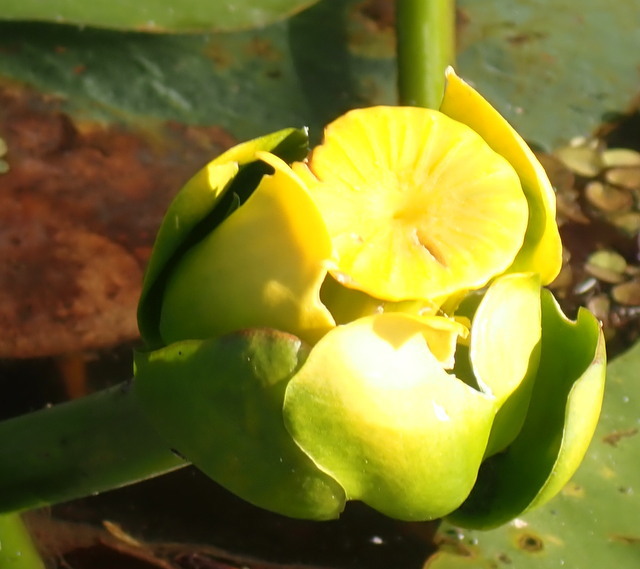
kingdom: Plantae
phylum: Tracheophyta
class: Magnoliopsida
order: Nymphaeales
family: Nymphaeaceae
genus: Nuphar
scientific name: Nuphar advena
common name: Spatter-dock
